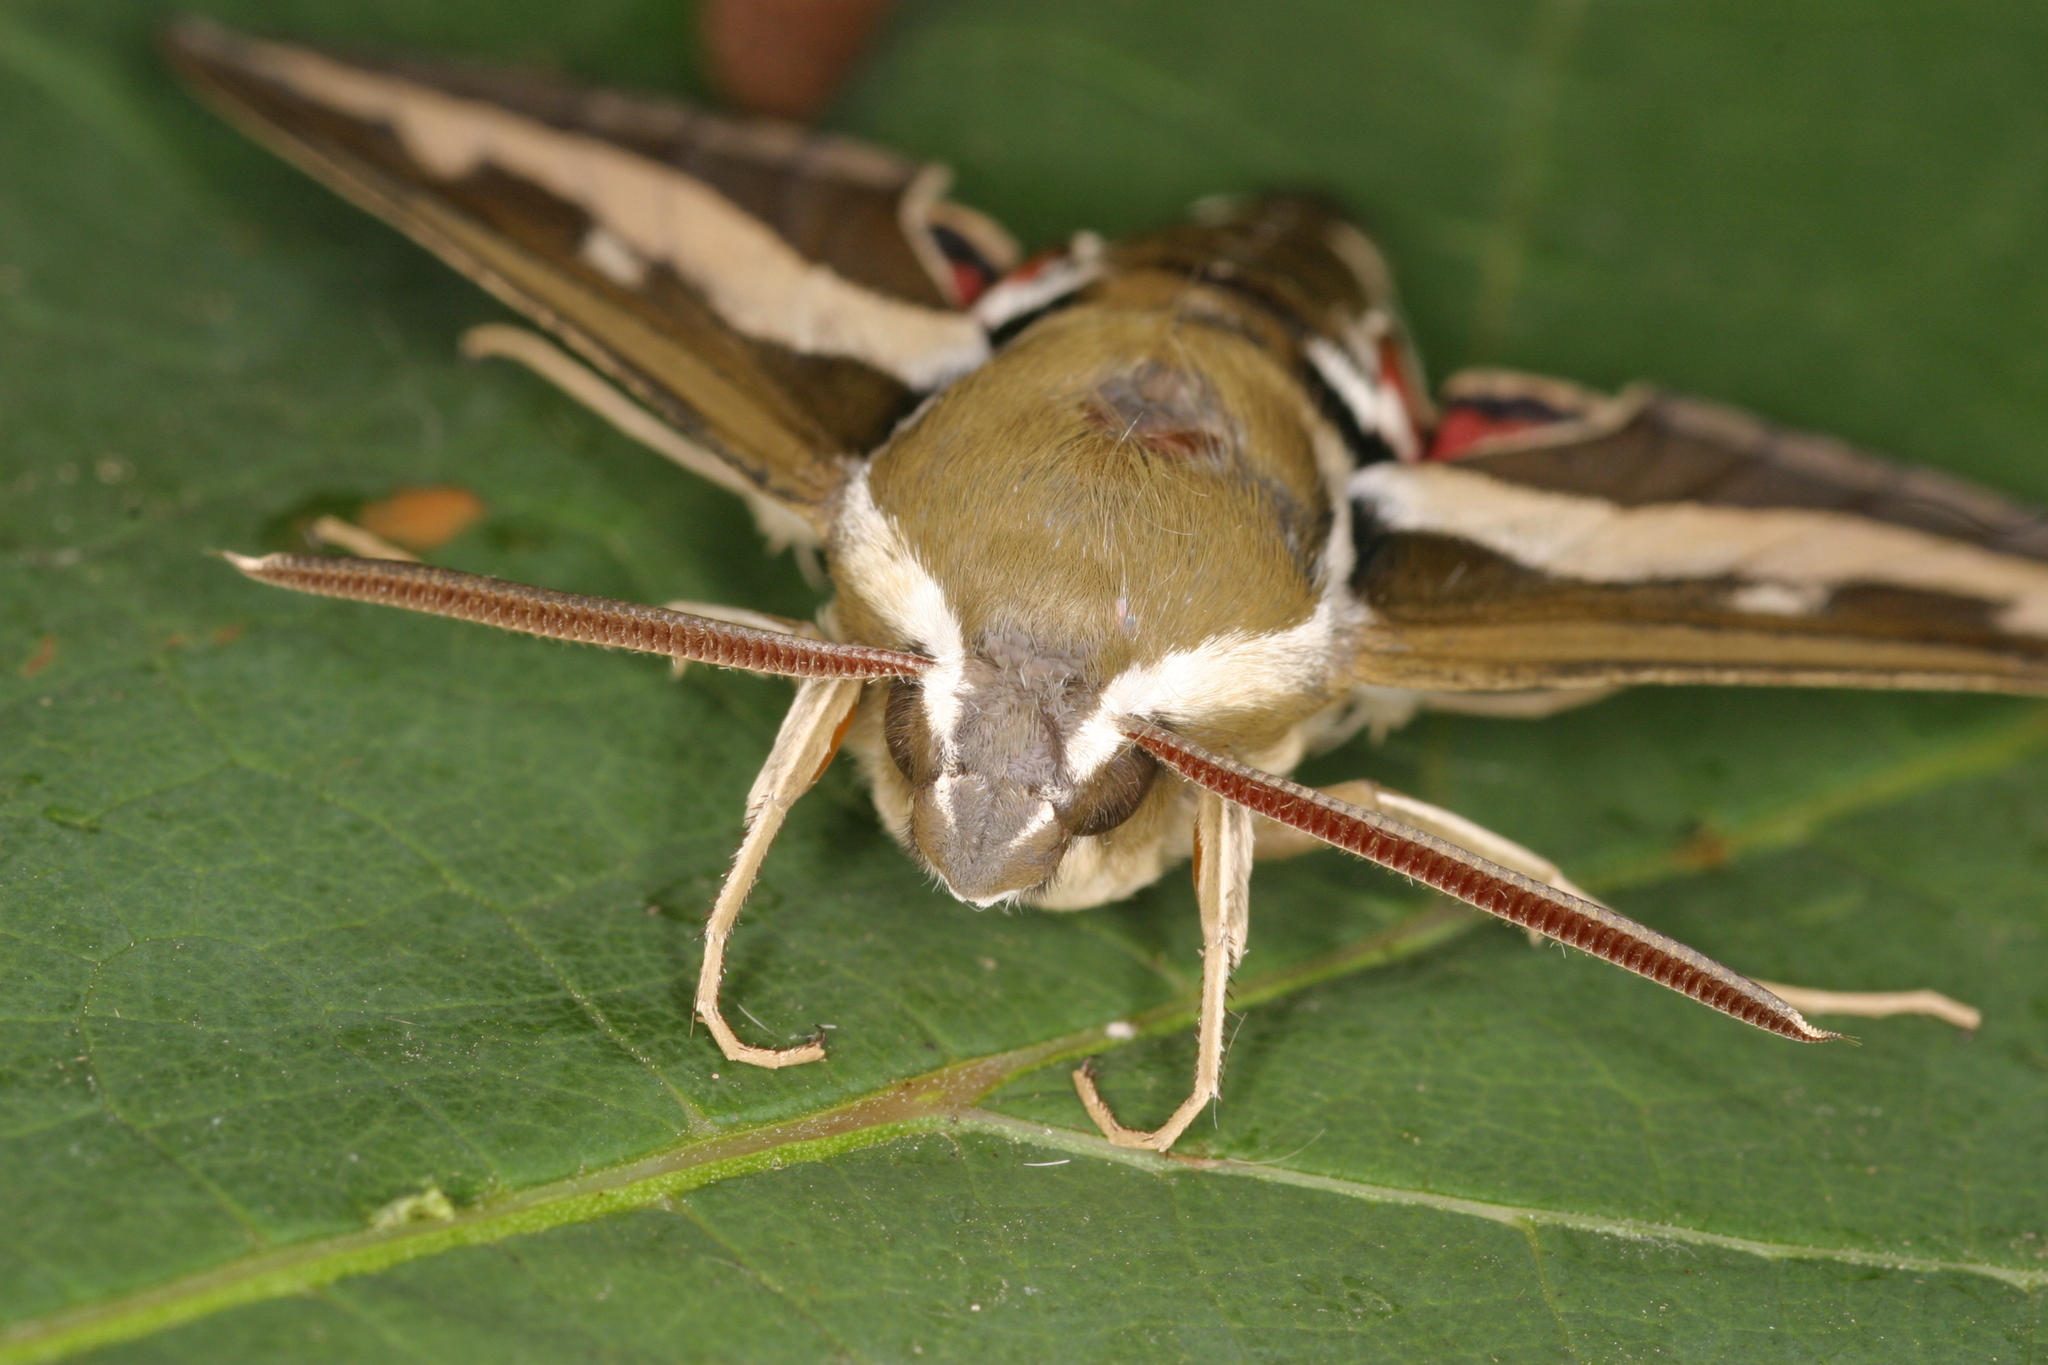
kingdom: Animalia
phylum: Arthropoda
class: Insecta
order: Lepidoptera
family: Sphingidae
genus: Hyles
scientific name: Hyles gallii
